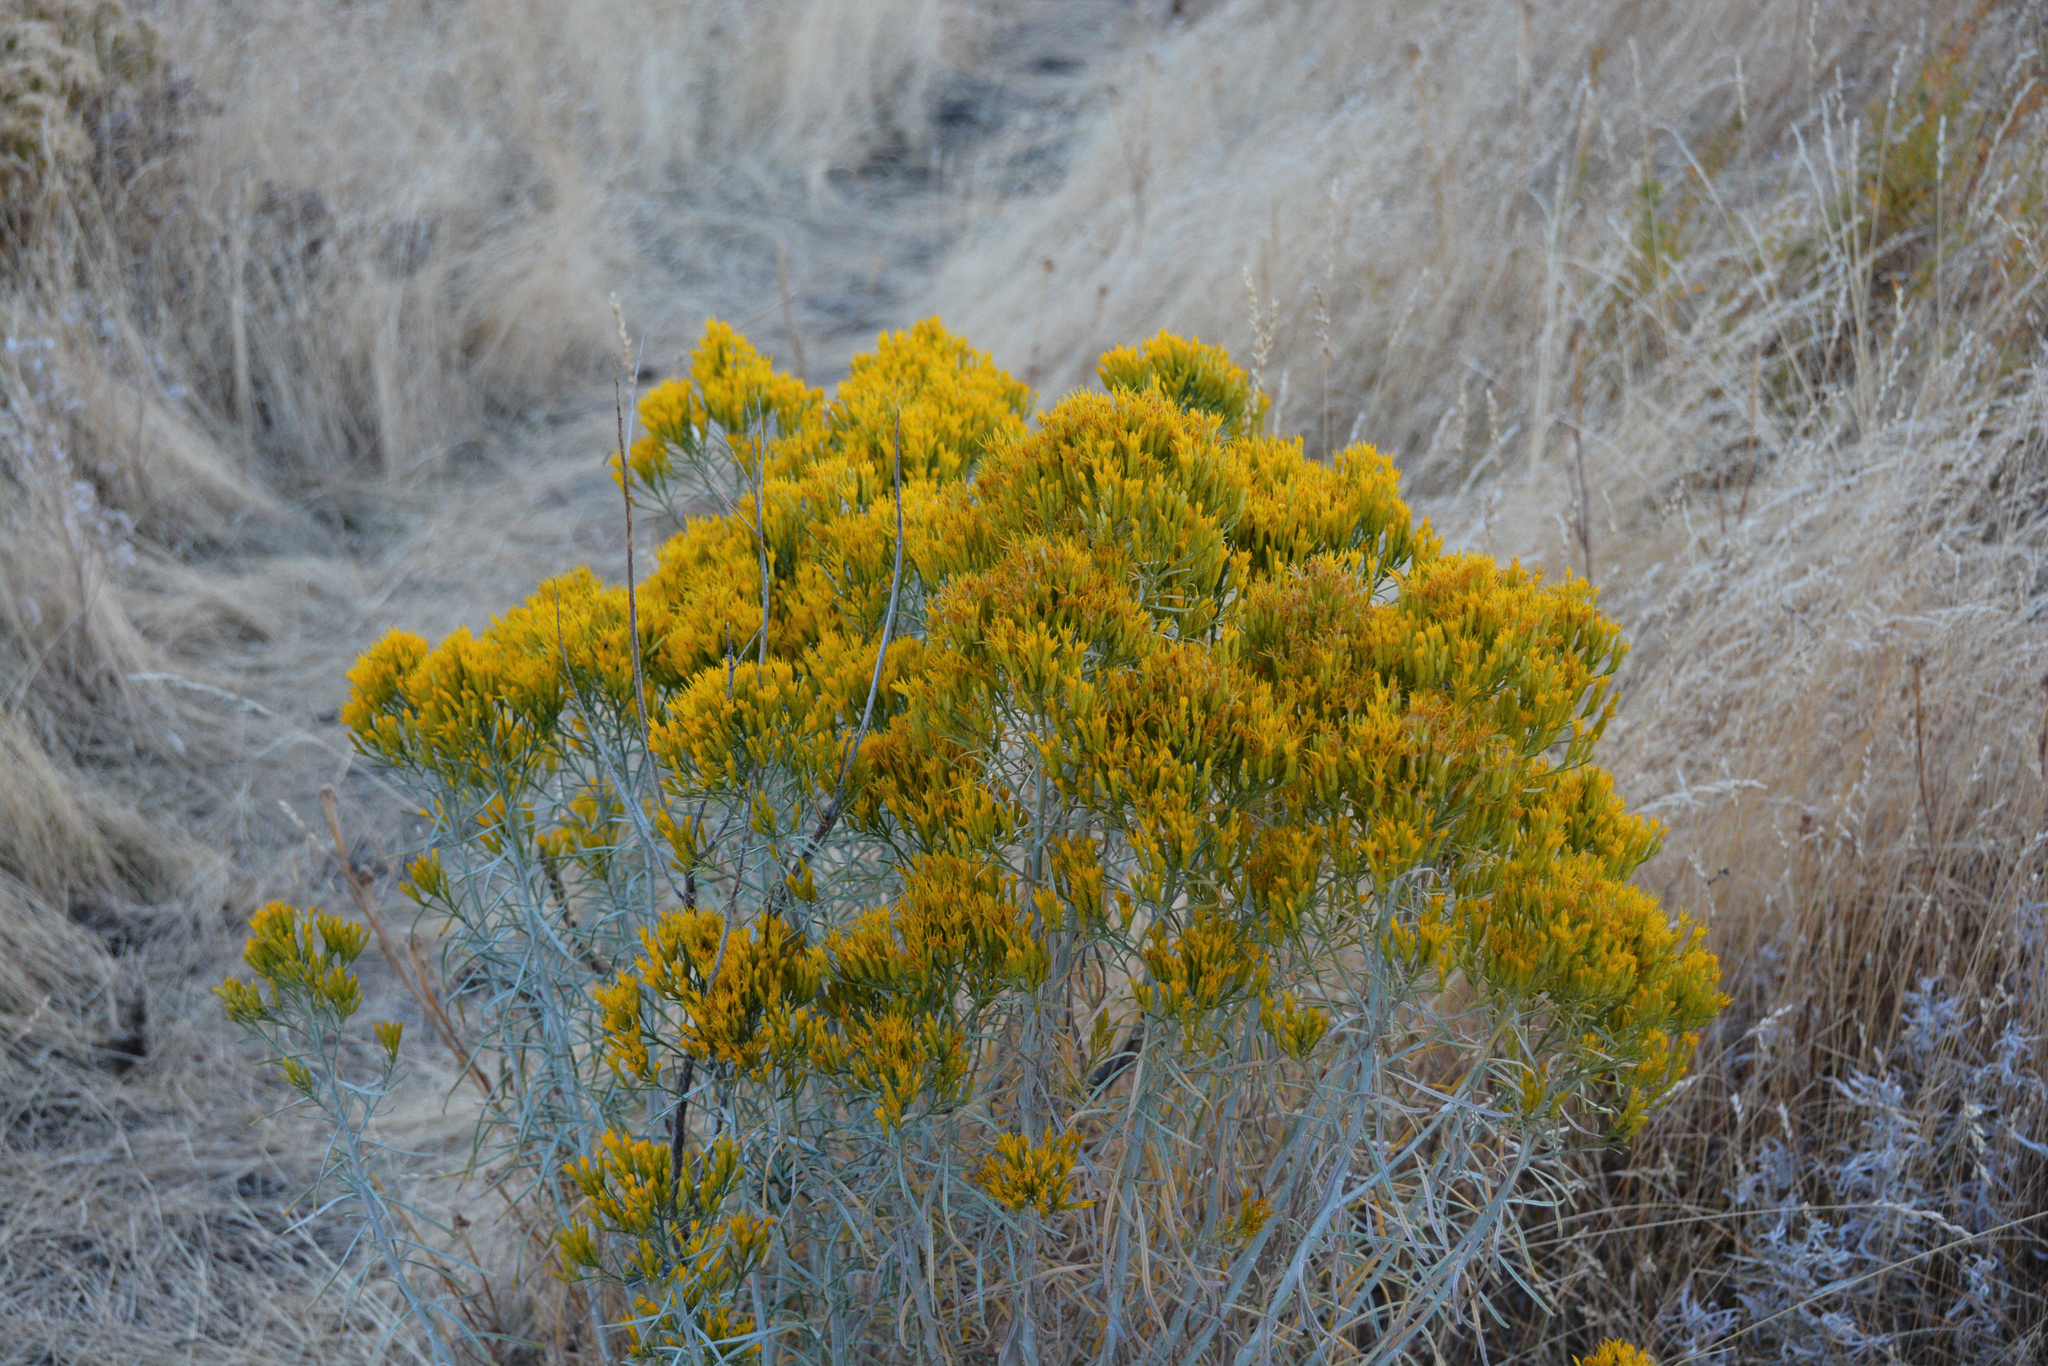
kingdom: Plantae
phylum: Tracheophyta
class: Magnoliopsida
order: Asterales
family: Asteraceae
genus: Ericameria
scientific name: Ericameria nauseosa
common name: Rubber rabbitbrush
